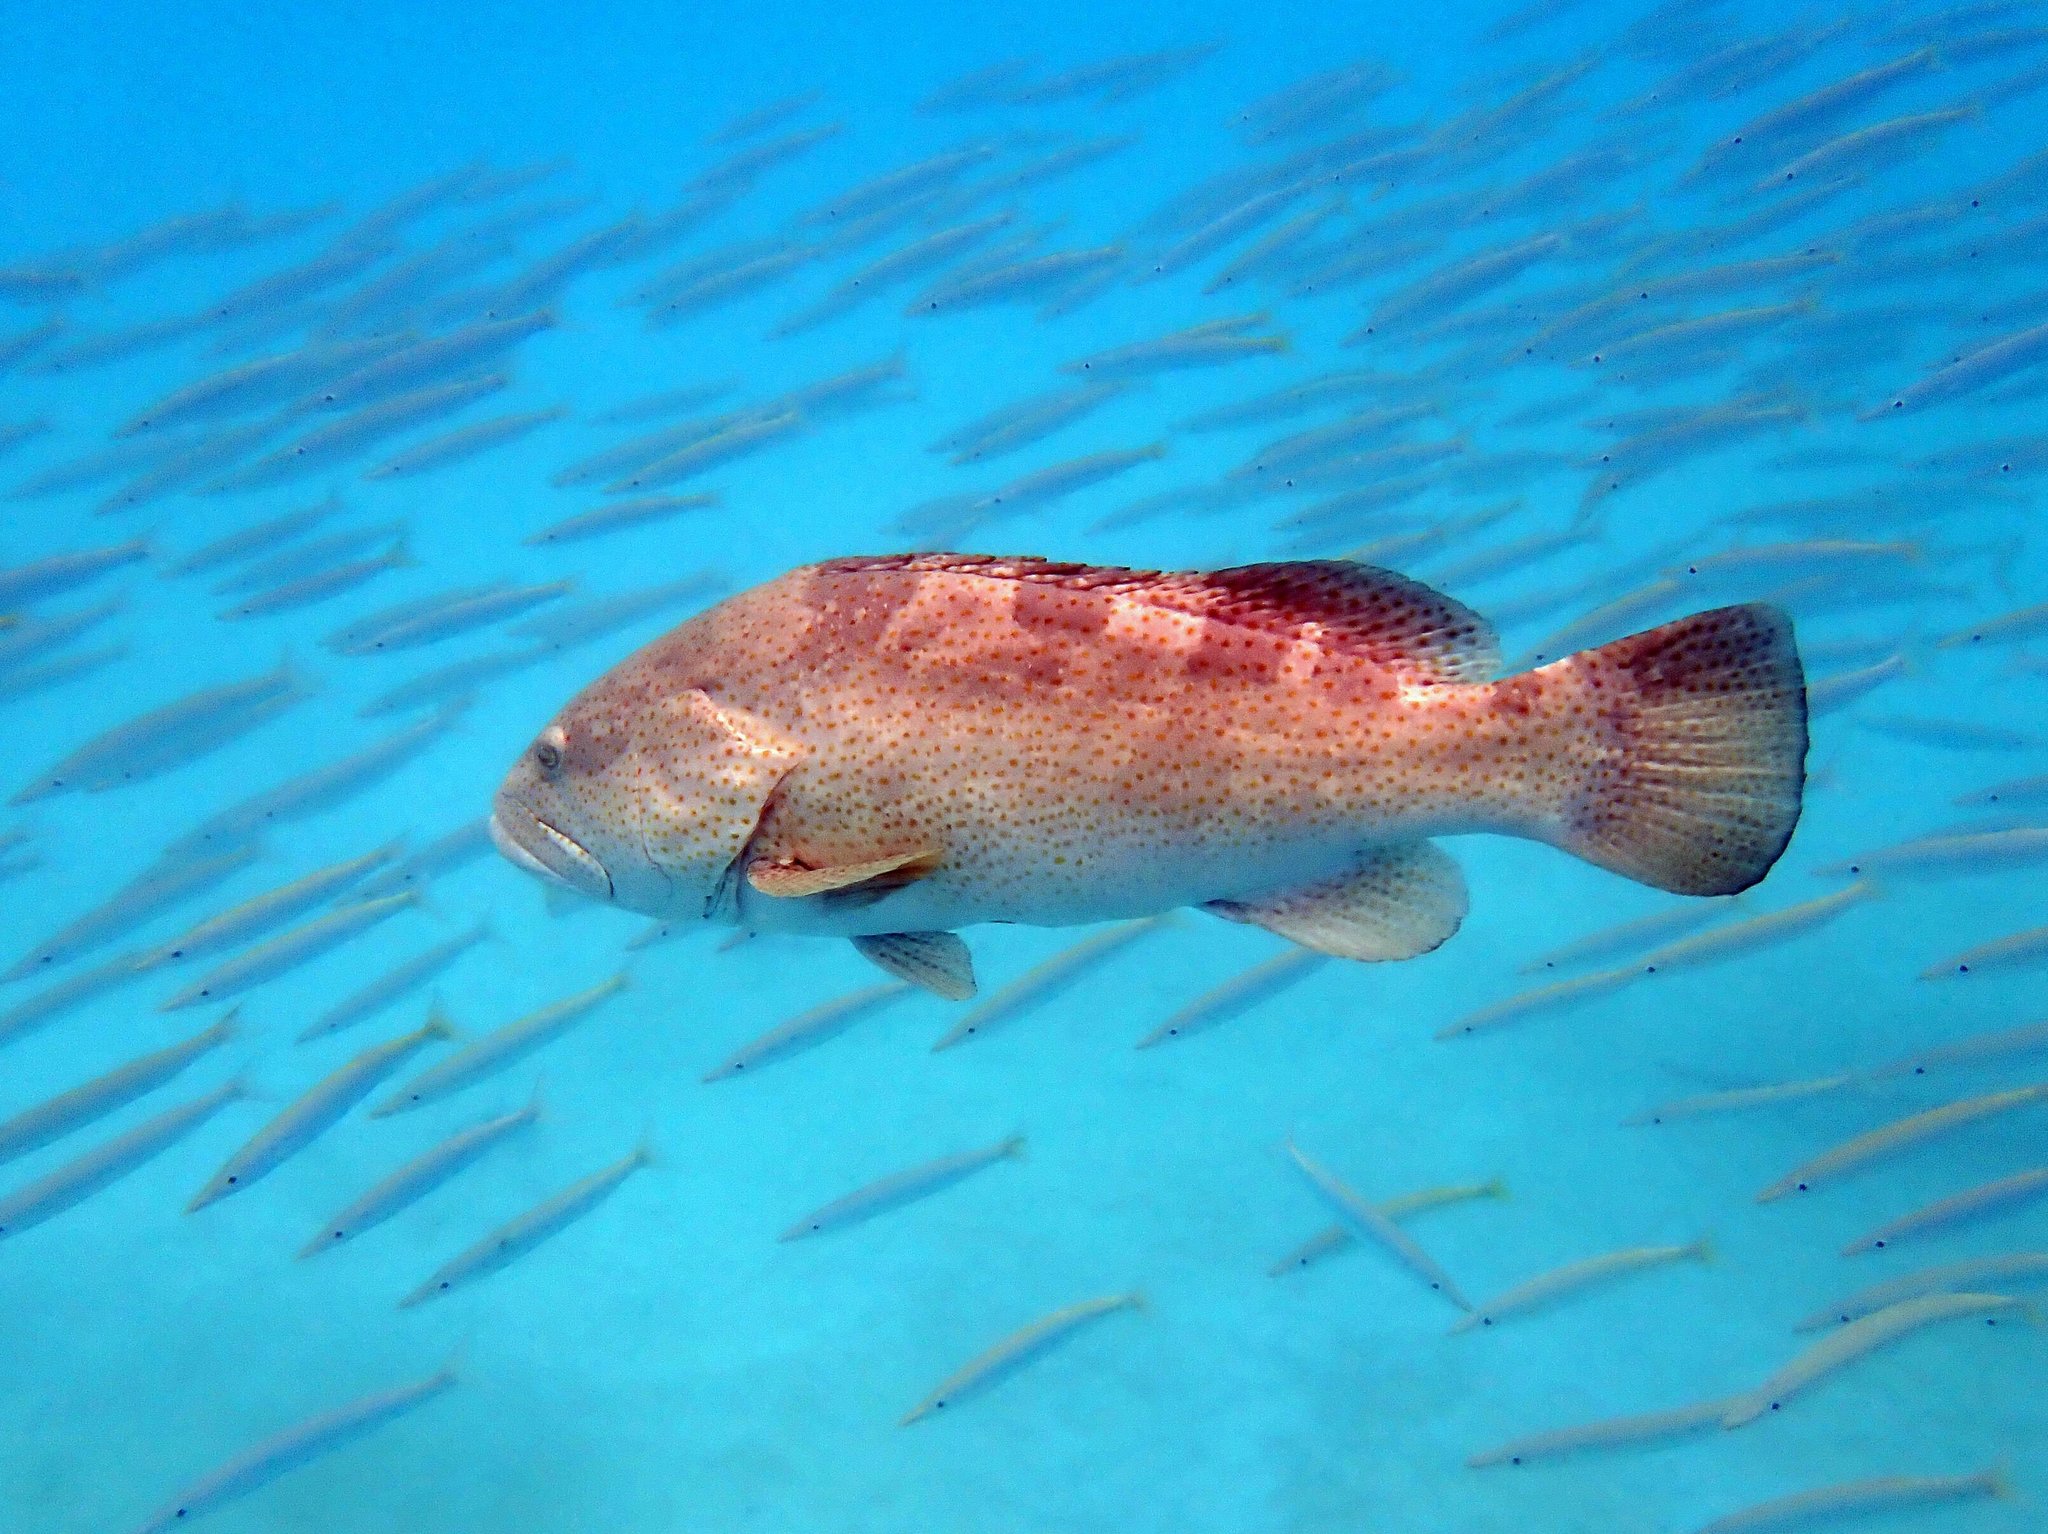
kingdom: Animalia
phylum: Chordata
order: Perciformes
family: Serranidae
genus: Epinephelus
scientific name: Epinephelus coioides
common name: Orange-spotted grouper
